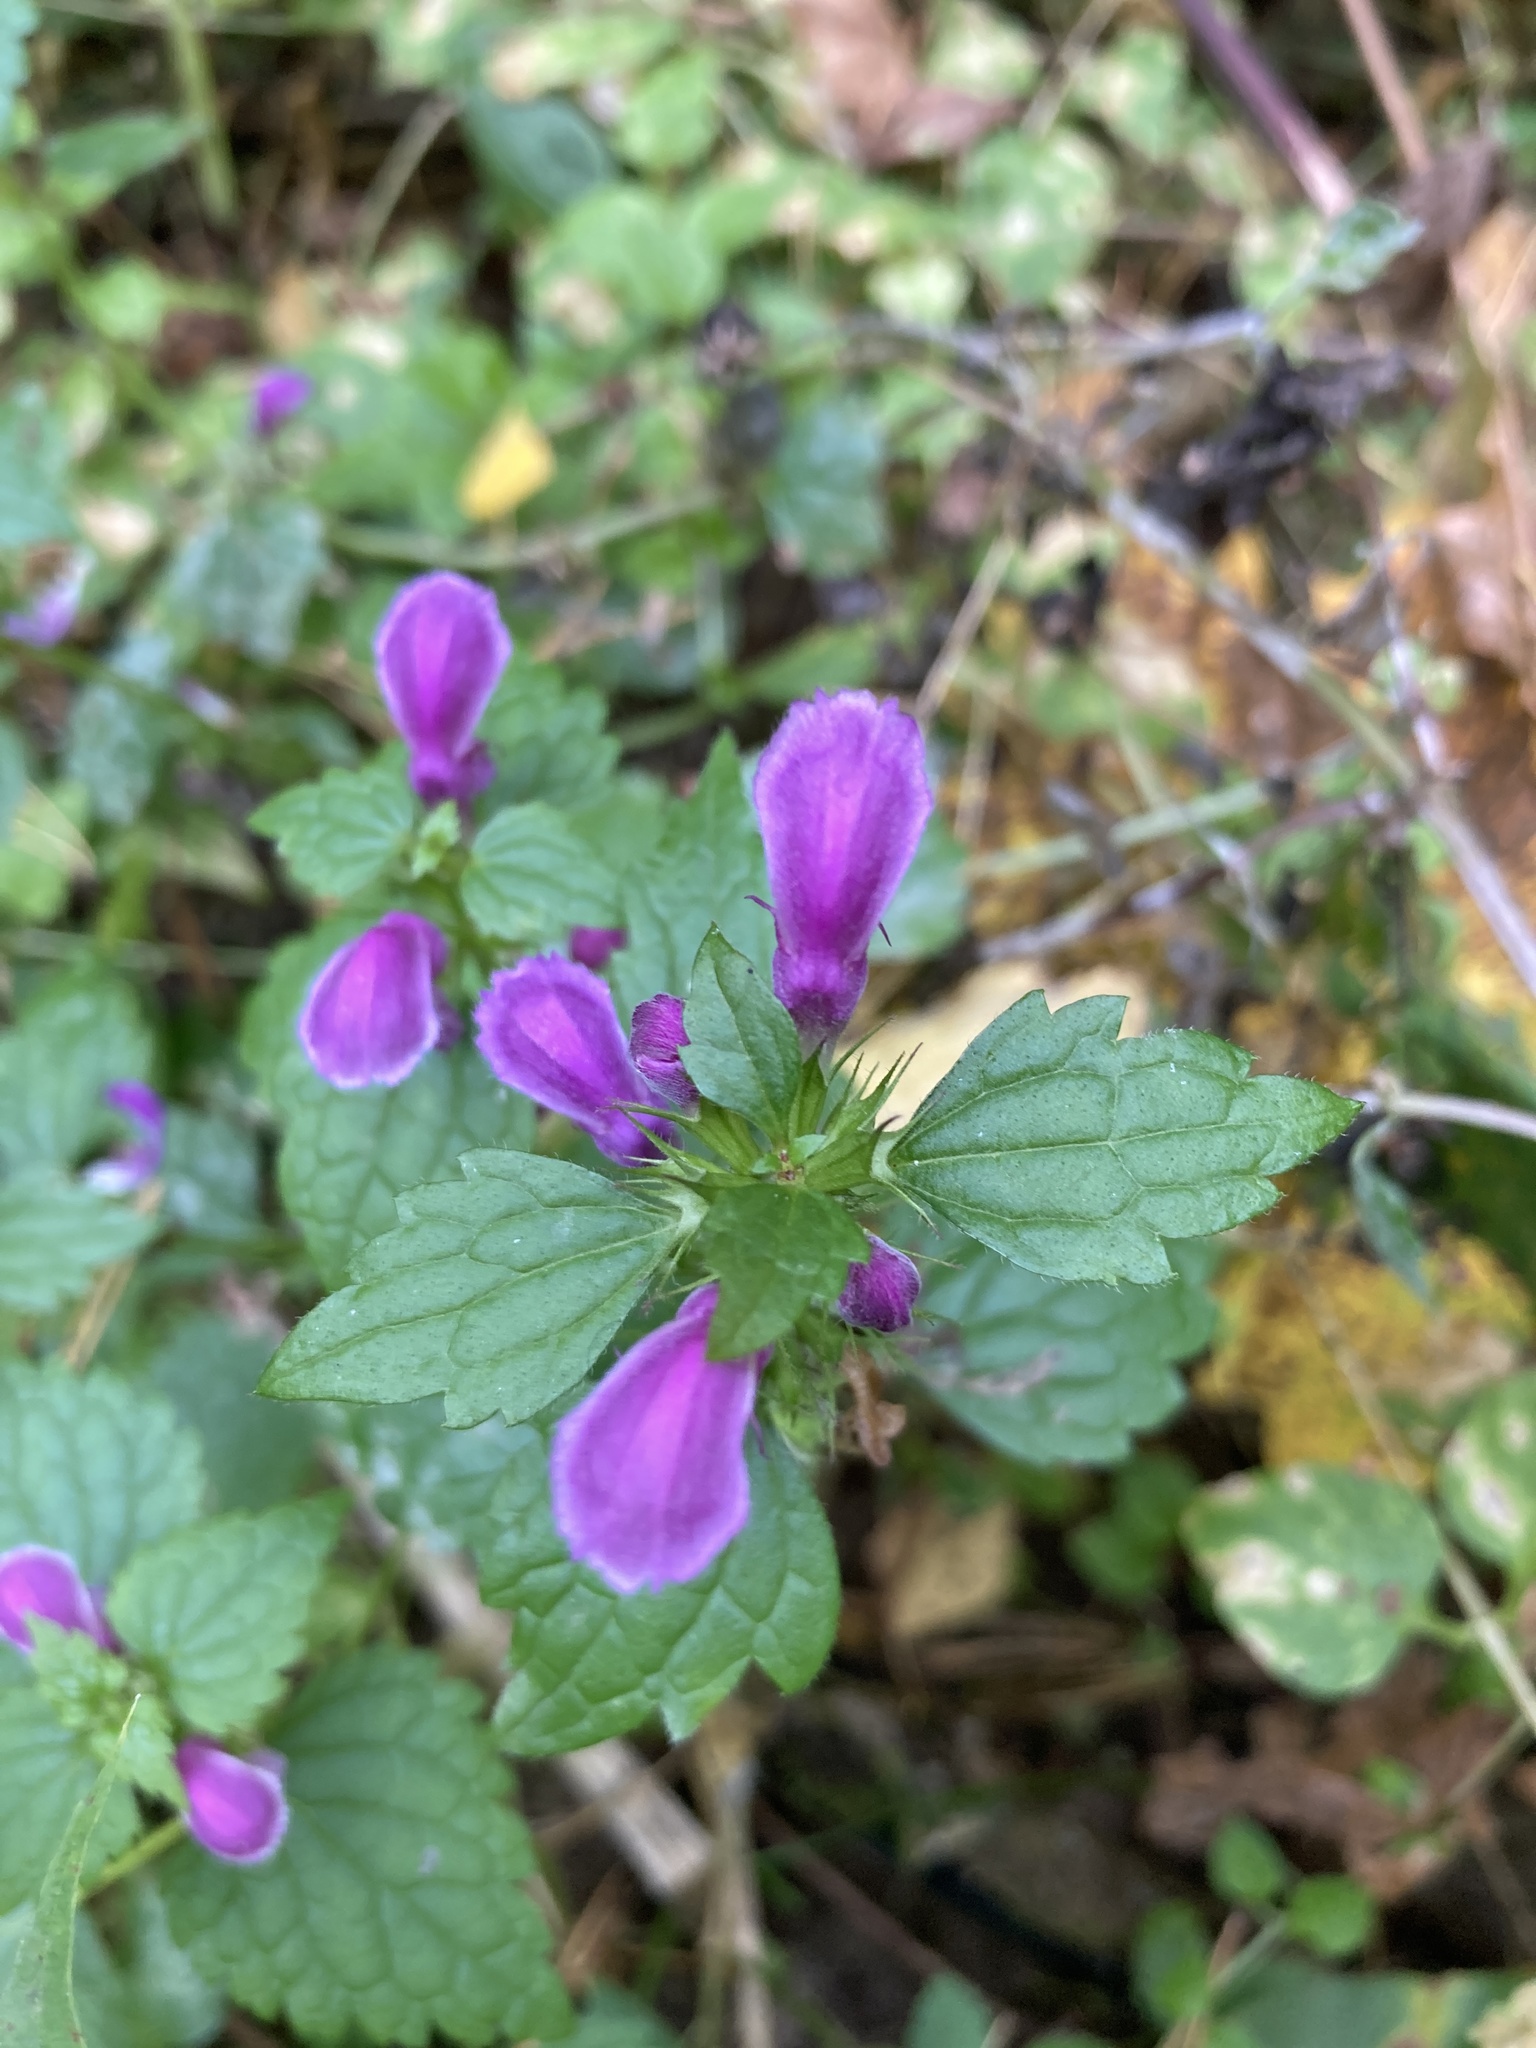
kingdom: Plantae
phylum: Tracheophyta
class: Magnoliopsida
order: Lamiales
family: Lamiaceae
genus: Lamium
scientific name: Lamium maculatum
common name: Spotted dead-nettle
